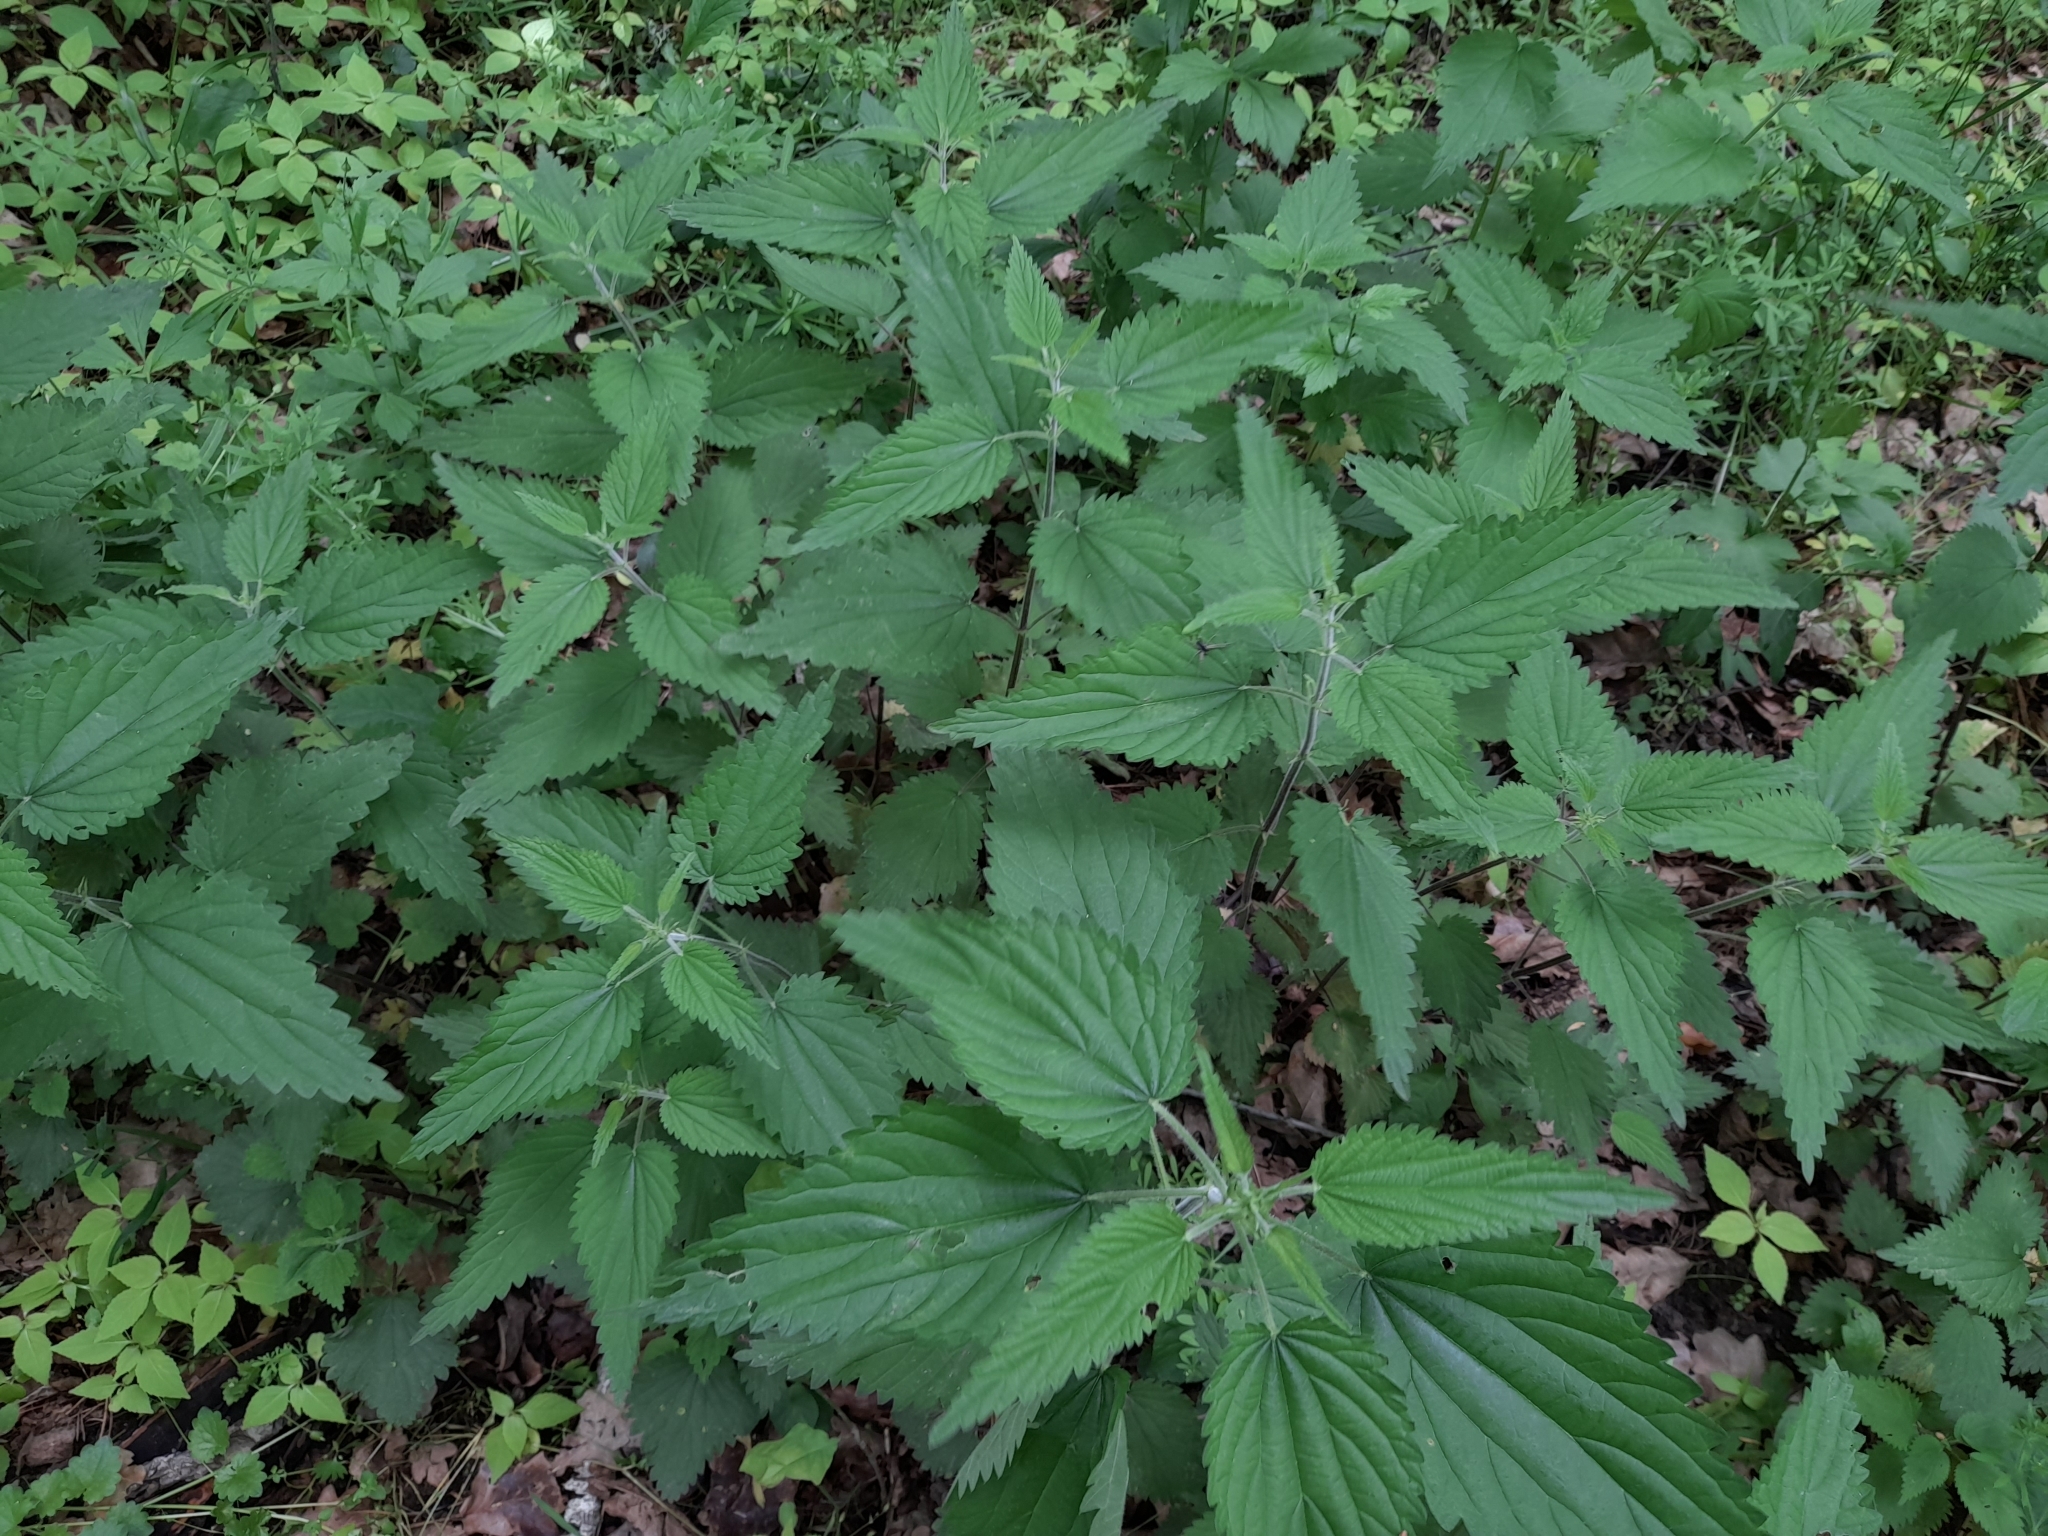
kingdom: Plantae
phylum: Tracheophyta
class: Magnoliopsida
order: Rosales
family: Urticaceae
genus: Urtica
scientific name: Urtica dioica
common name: Common nettle
